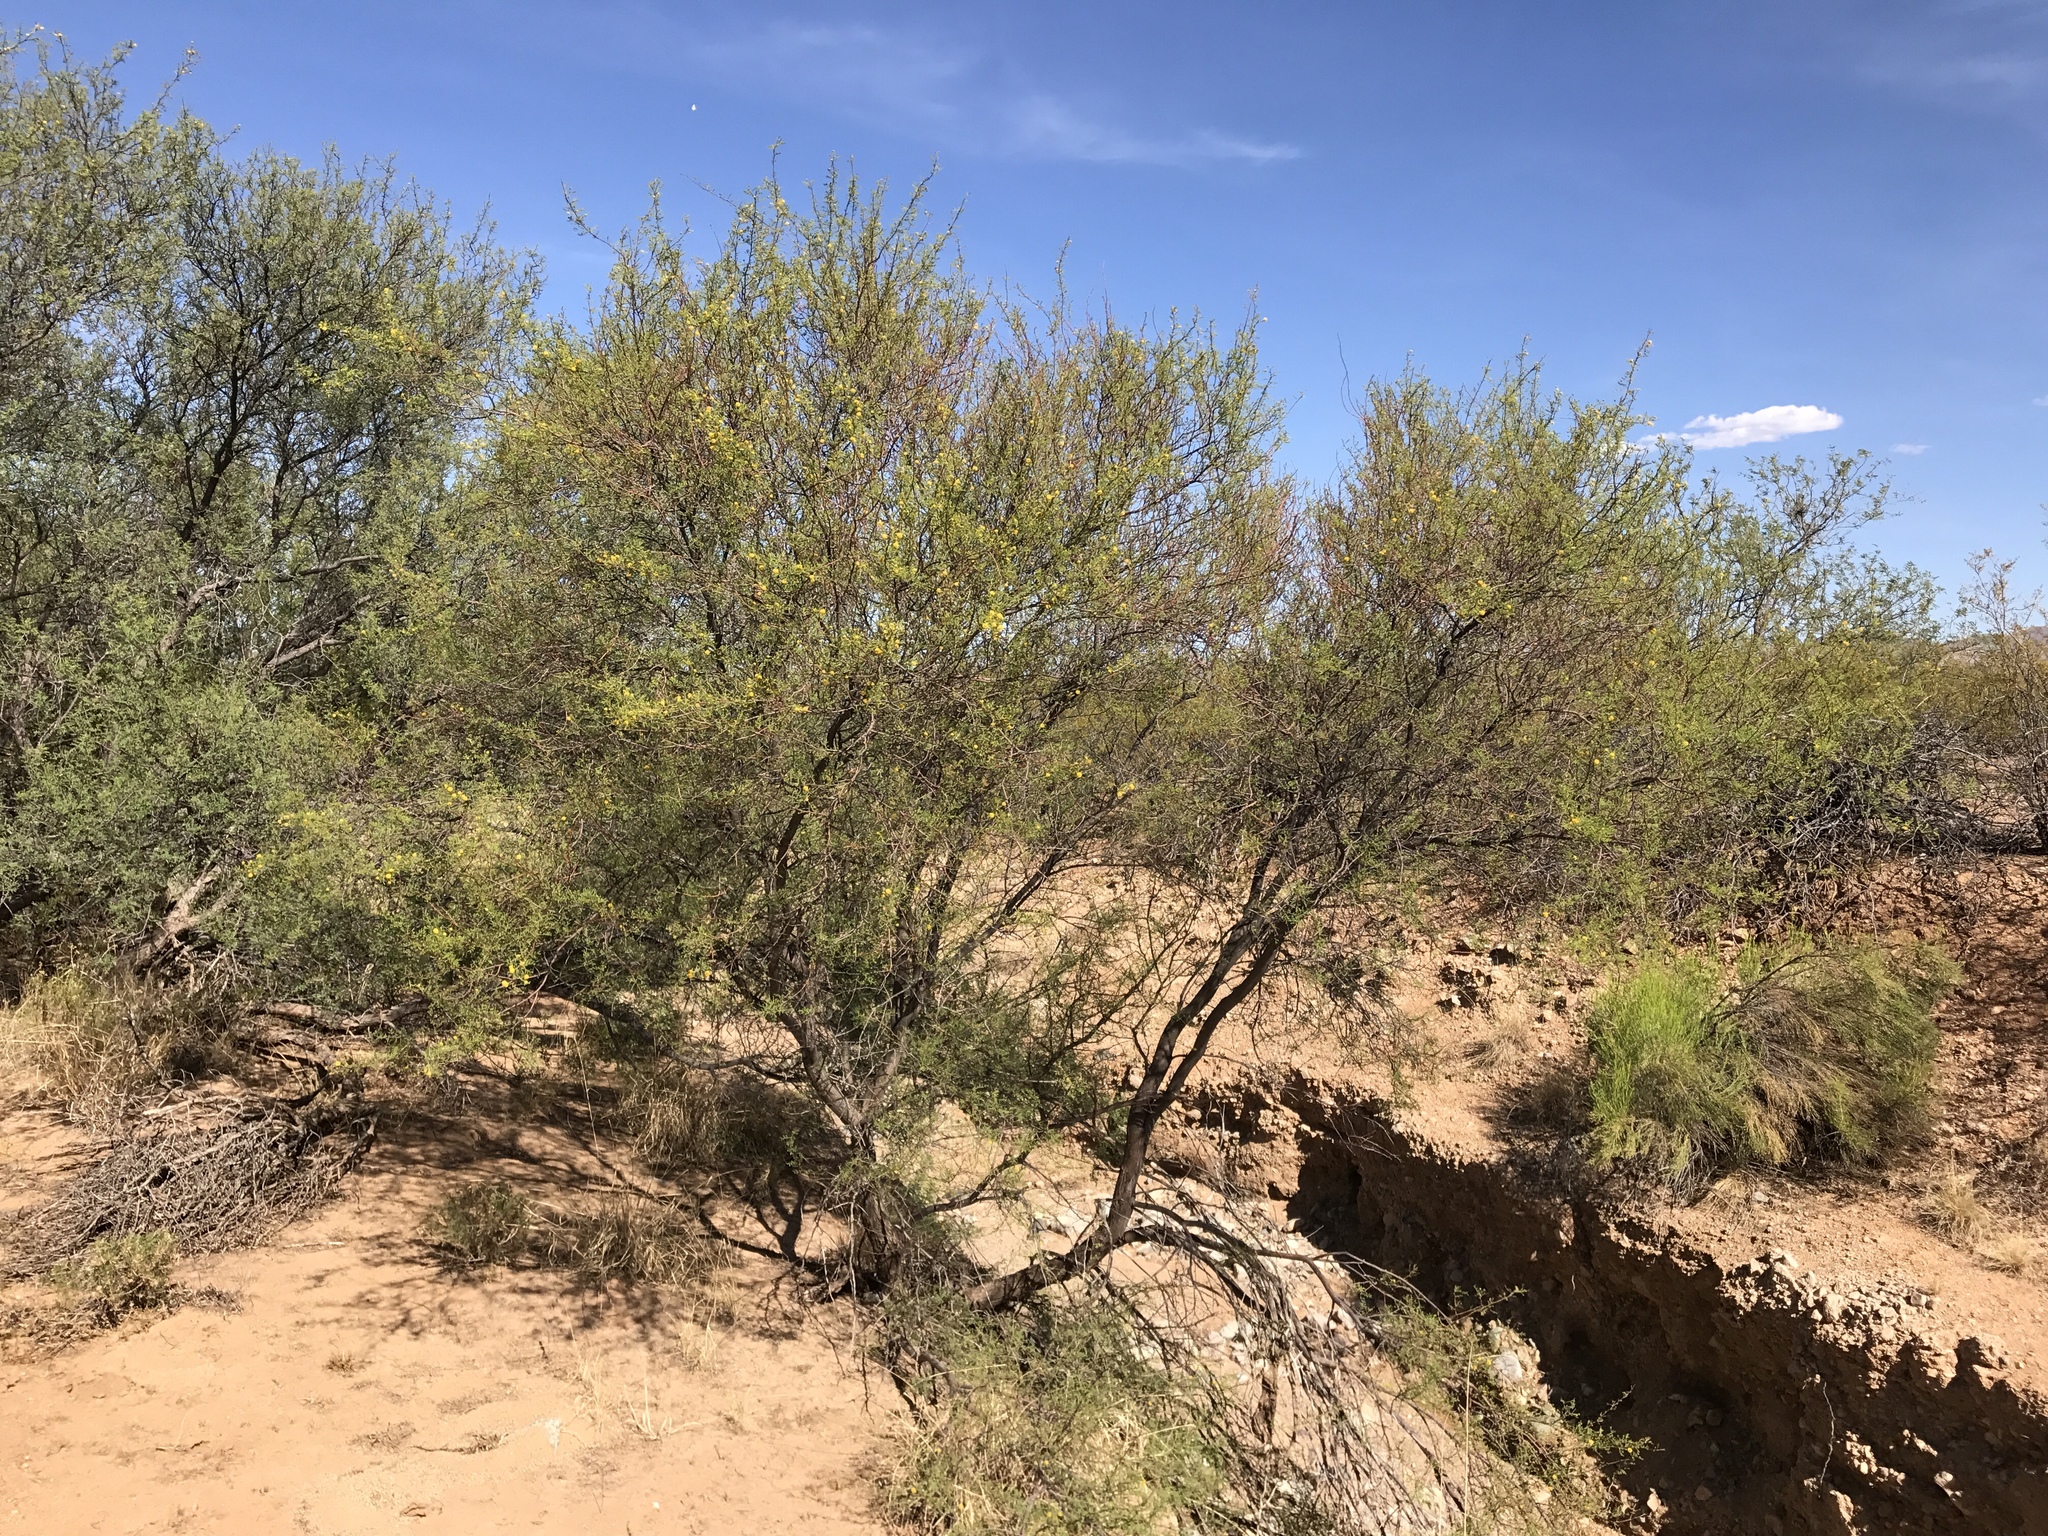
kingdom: Plantae
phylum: Tracheophyta
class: Magnoliopsida
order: Fabales
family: Fabaceae
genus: Vachellia
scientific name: Vachellia constricta
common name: Mescat acacia
